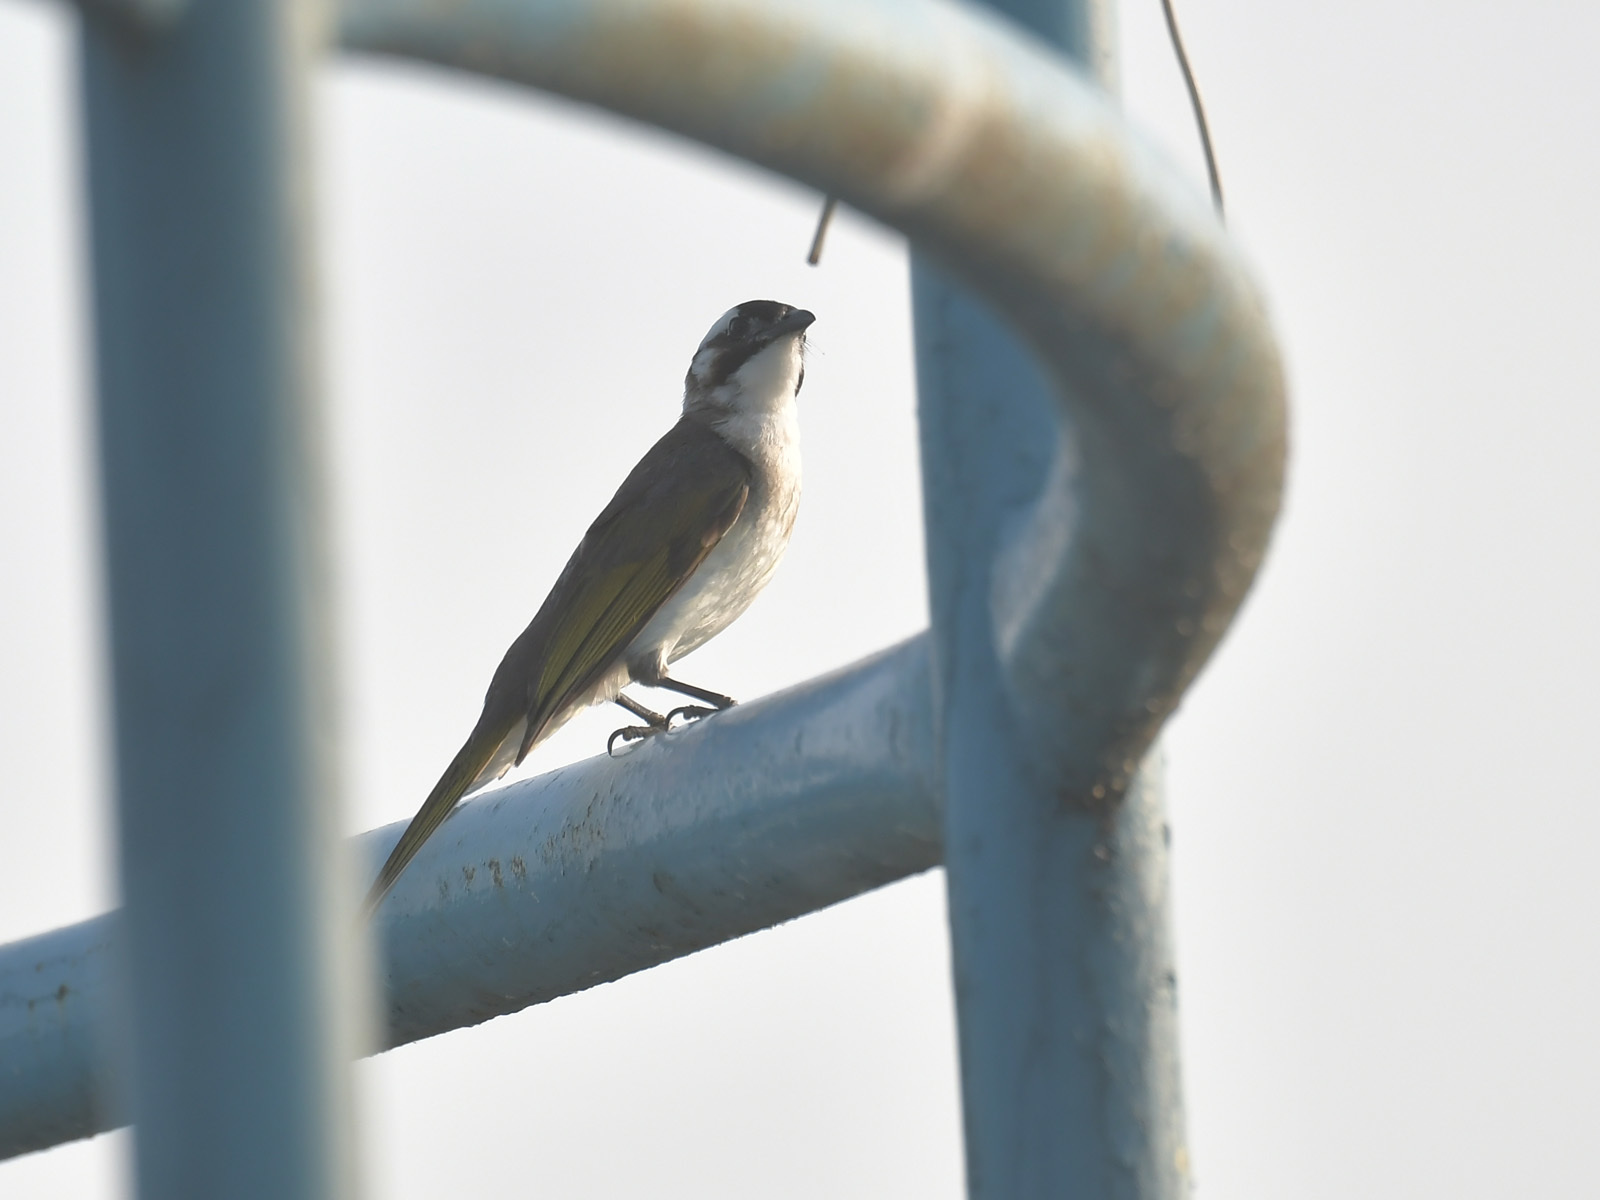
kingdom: Animalia
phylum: Chordata
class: Aves
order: Passeriformes
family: Pycnonotidae
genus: Pycnonotus
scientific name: Pycnonotus sinensis
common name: Light-vented bulbul
